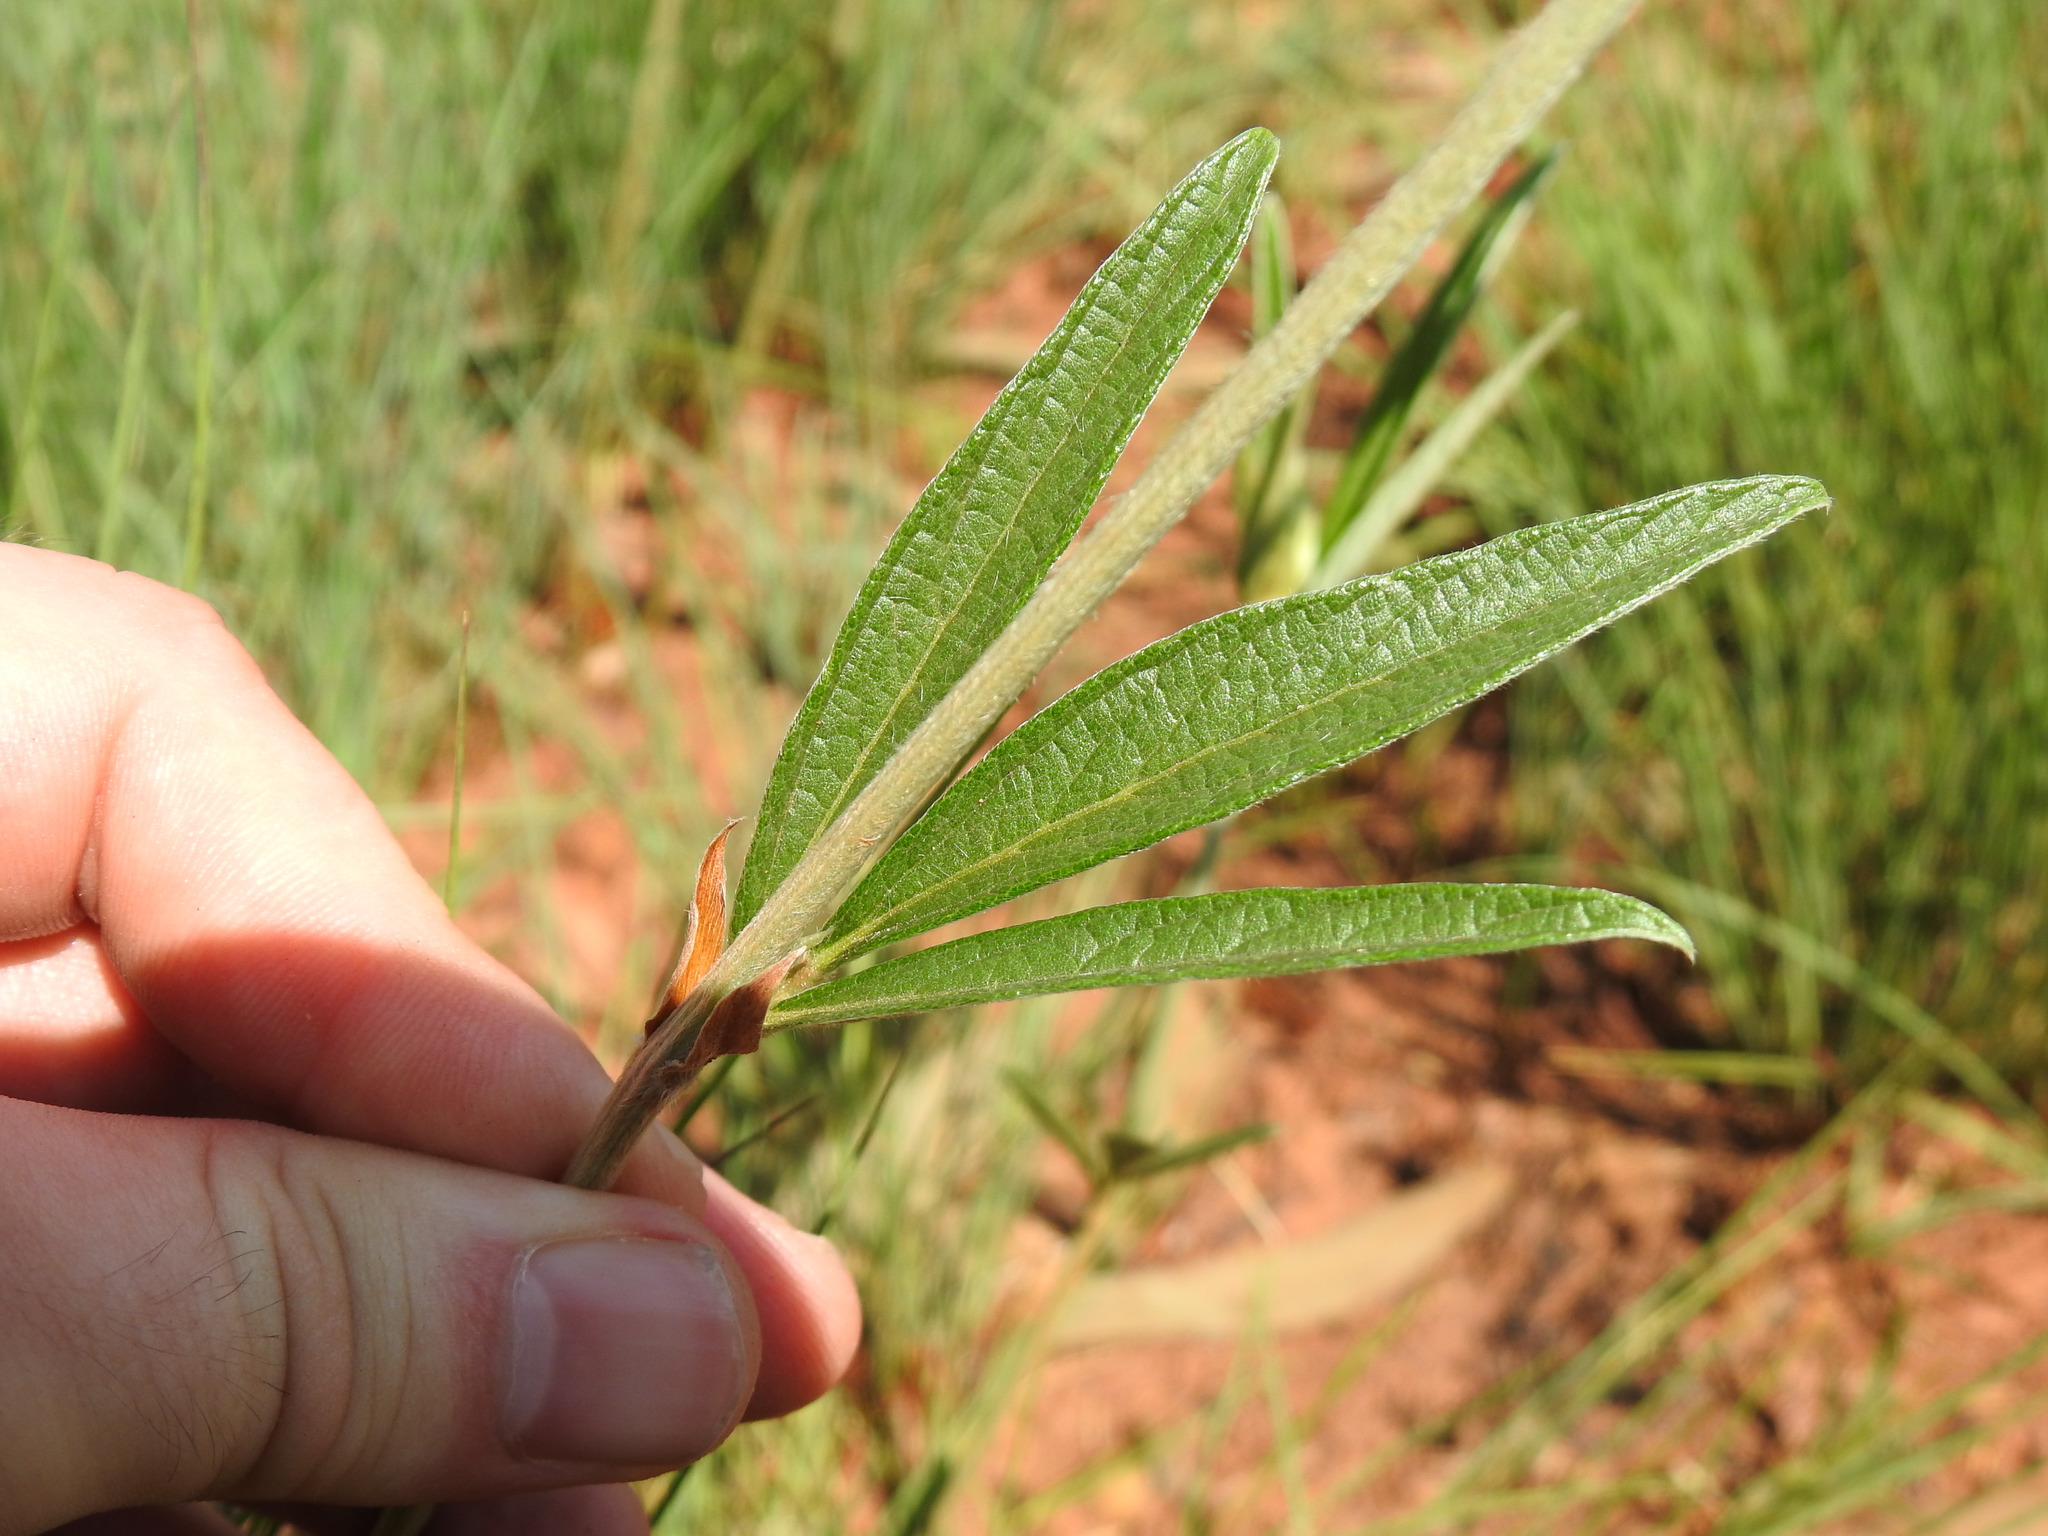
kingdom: Plantae
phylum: Tracheophyta
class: Magnoliopsida
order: Fabales
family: Fabaceae
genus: Eriosema
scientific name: Eriosema burkei
